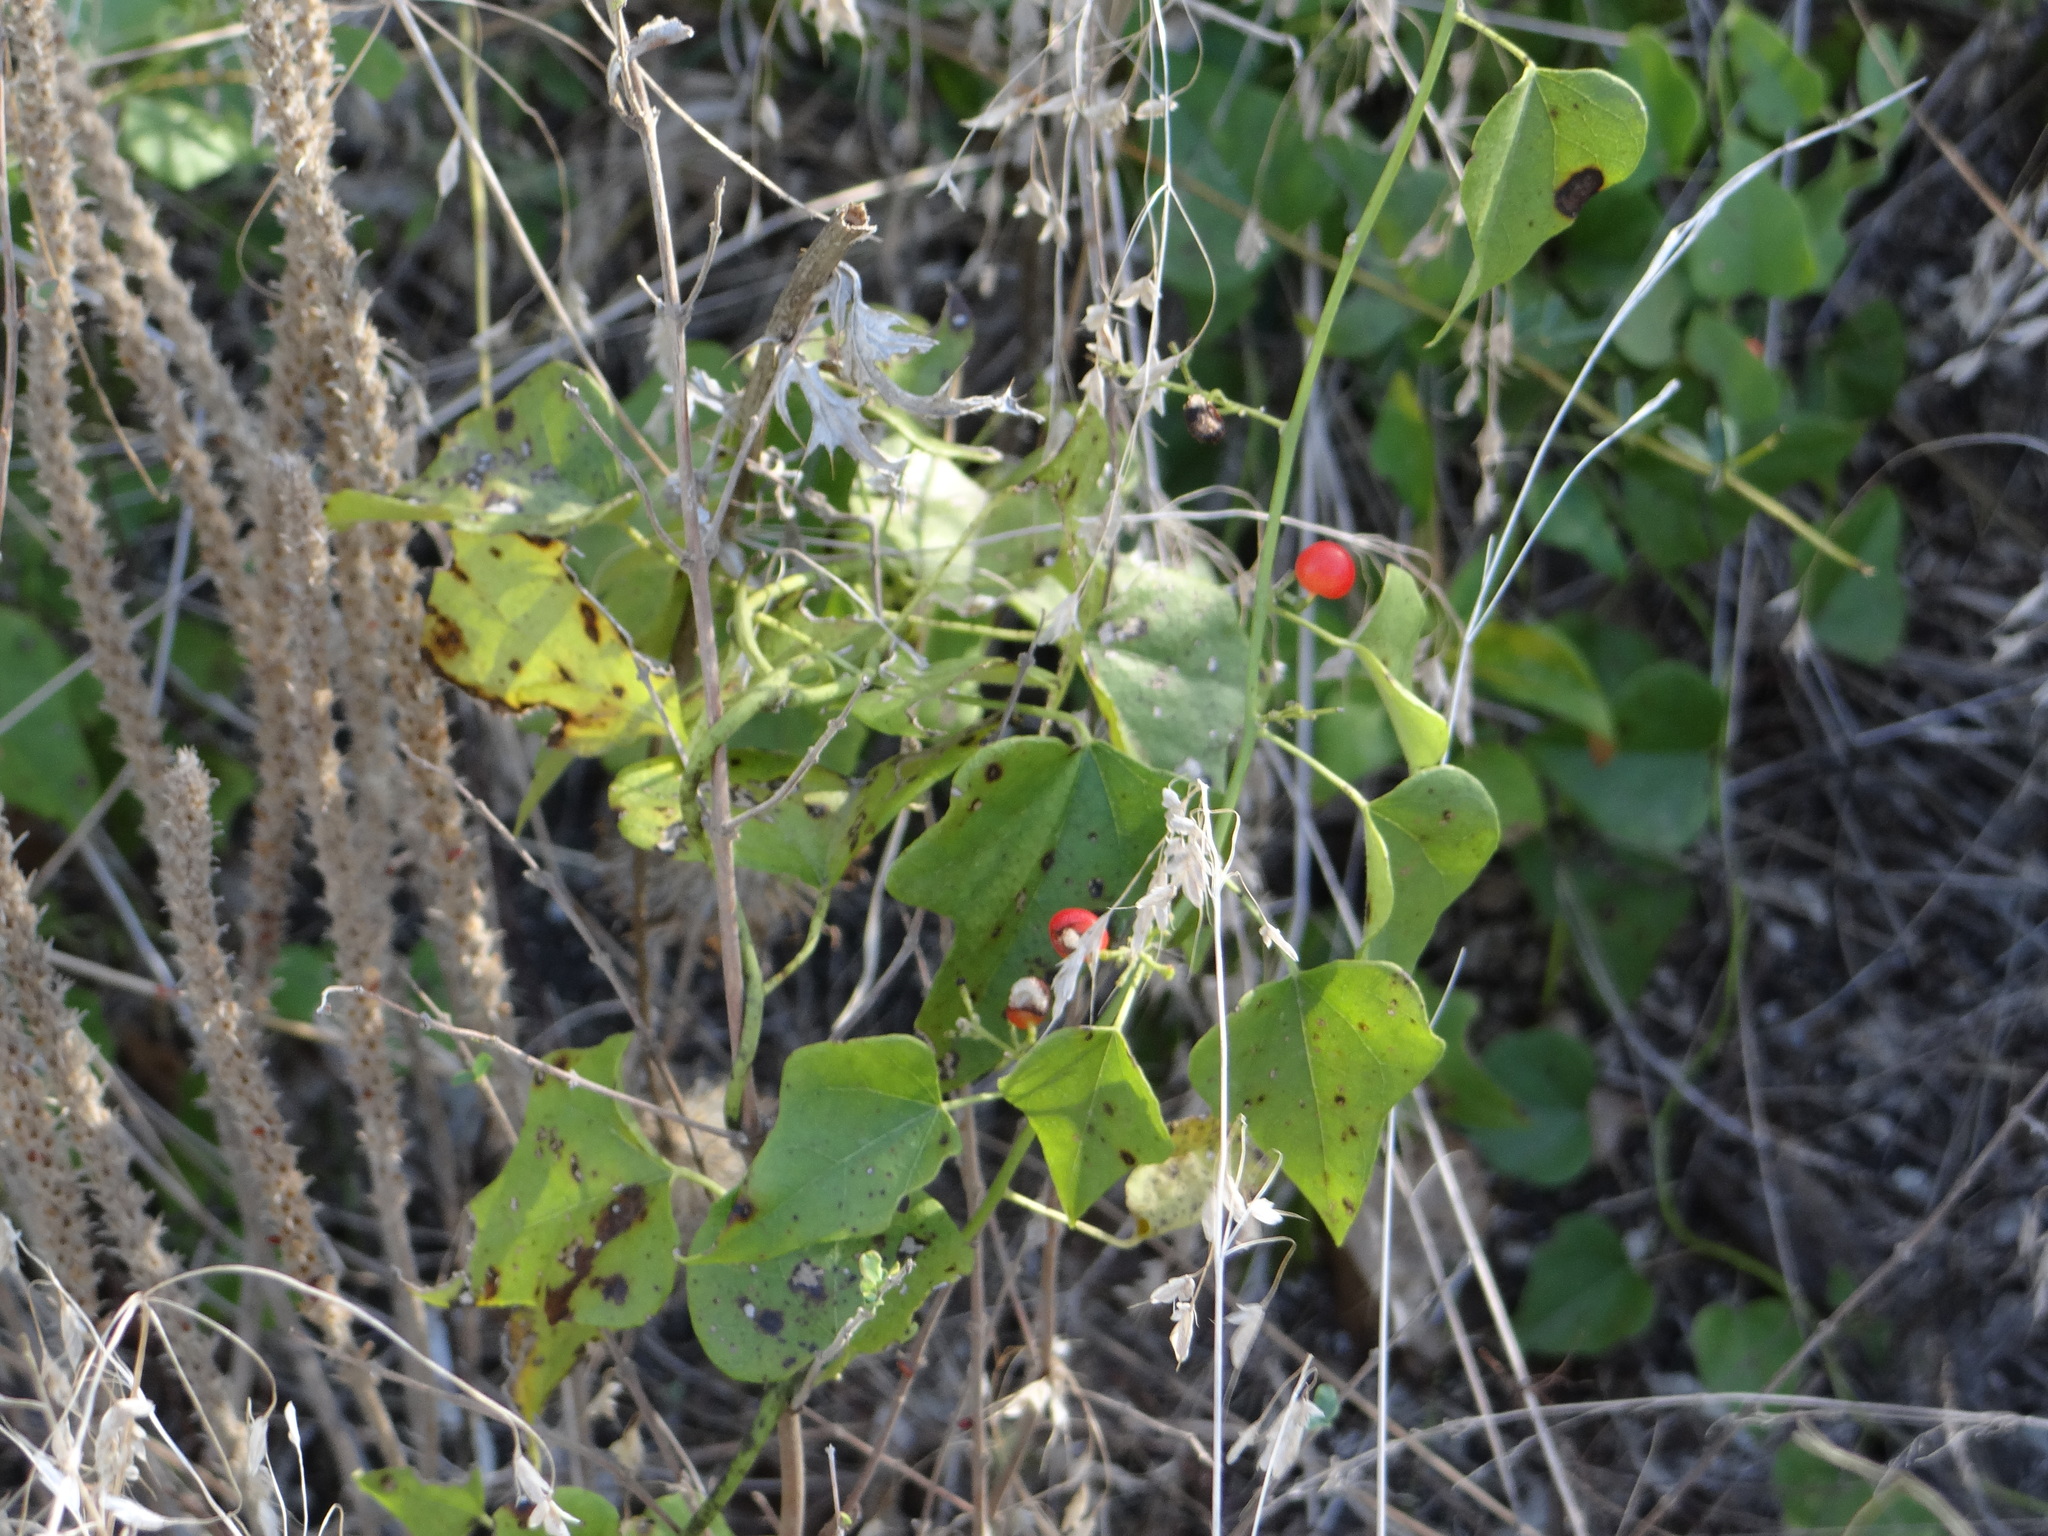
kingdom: Plantae
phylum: Tracheophyta
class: Magnoliopsida
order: Ranunculales
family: Menispermaceae
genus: Cocculus
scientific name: Cocculus carolinus
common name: Carolina moonseed
